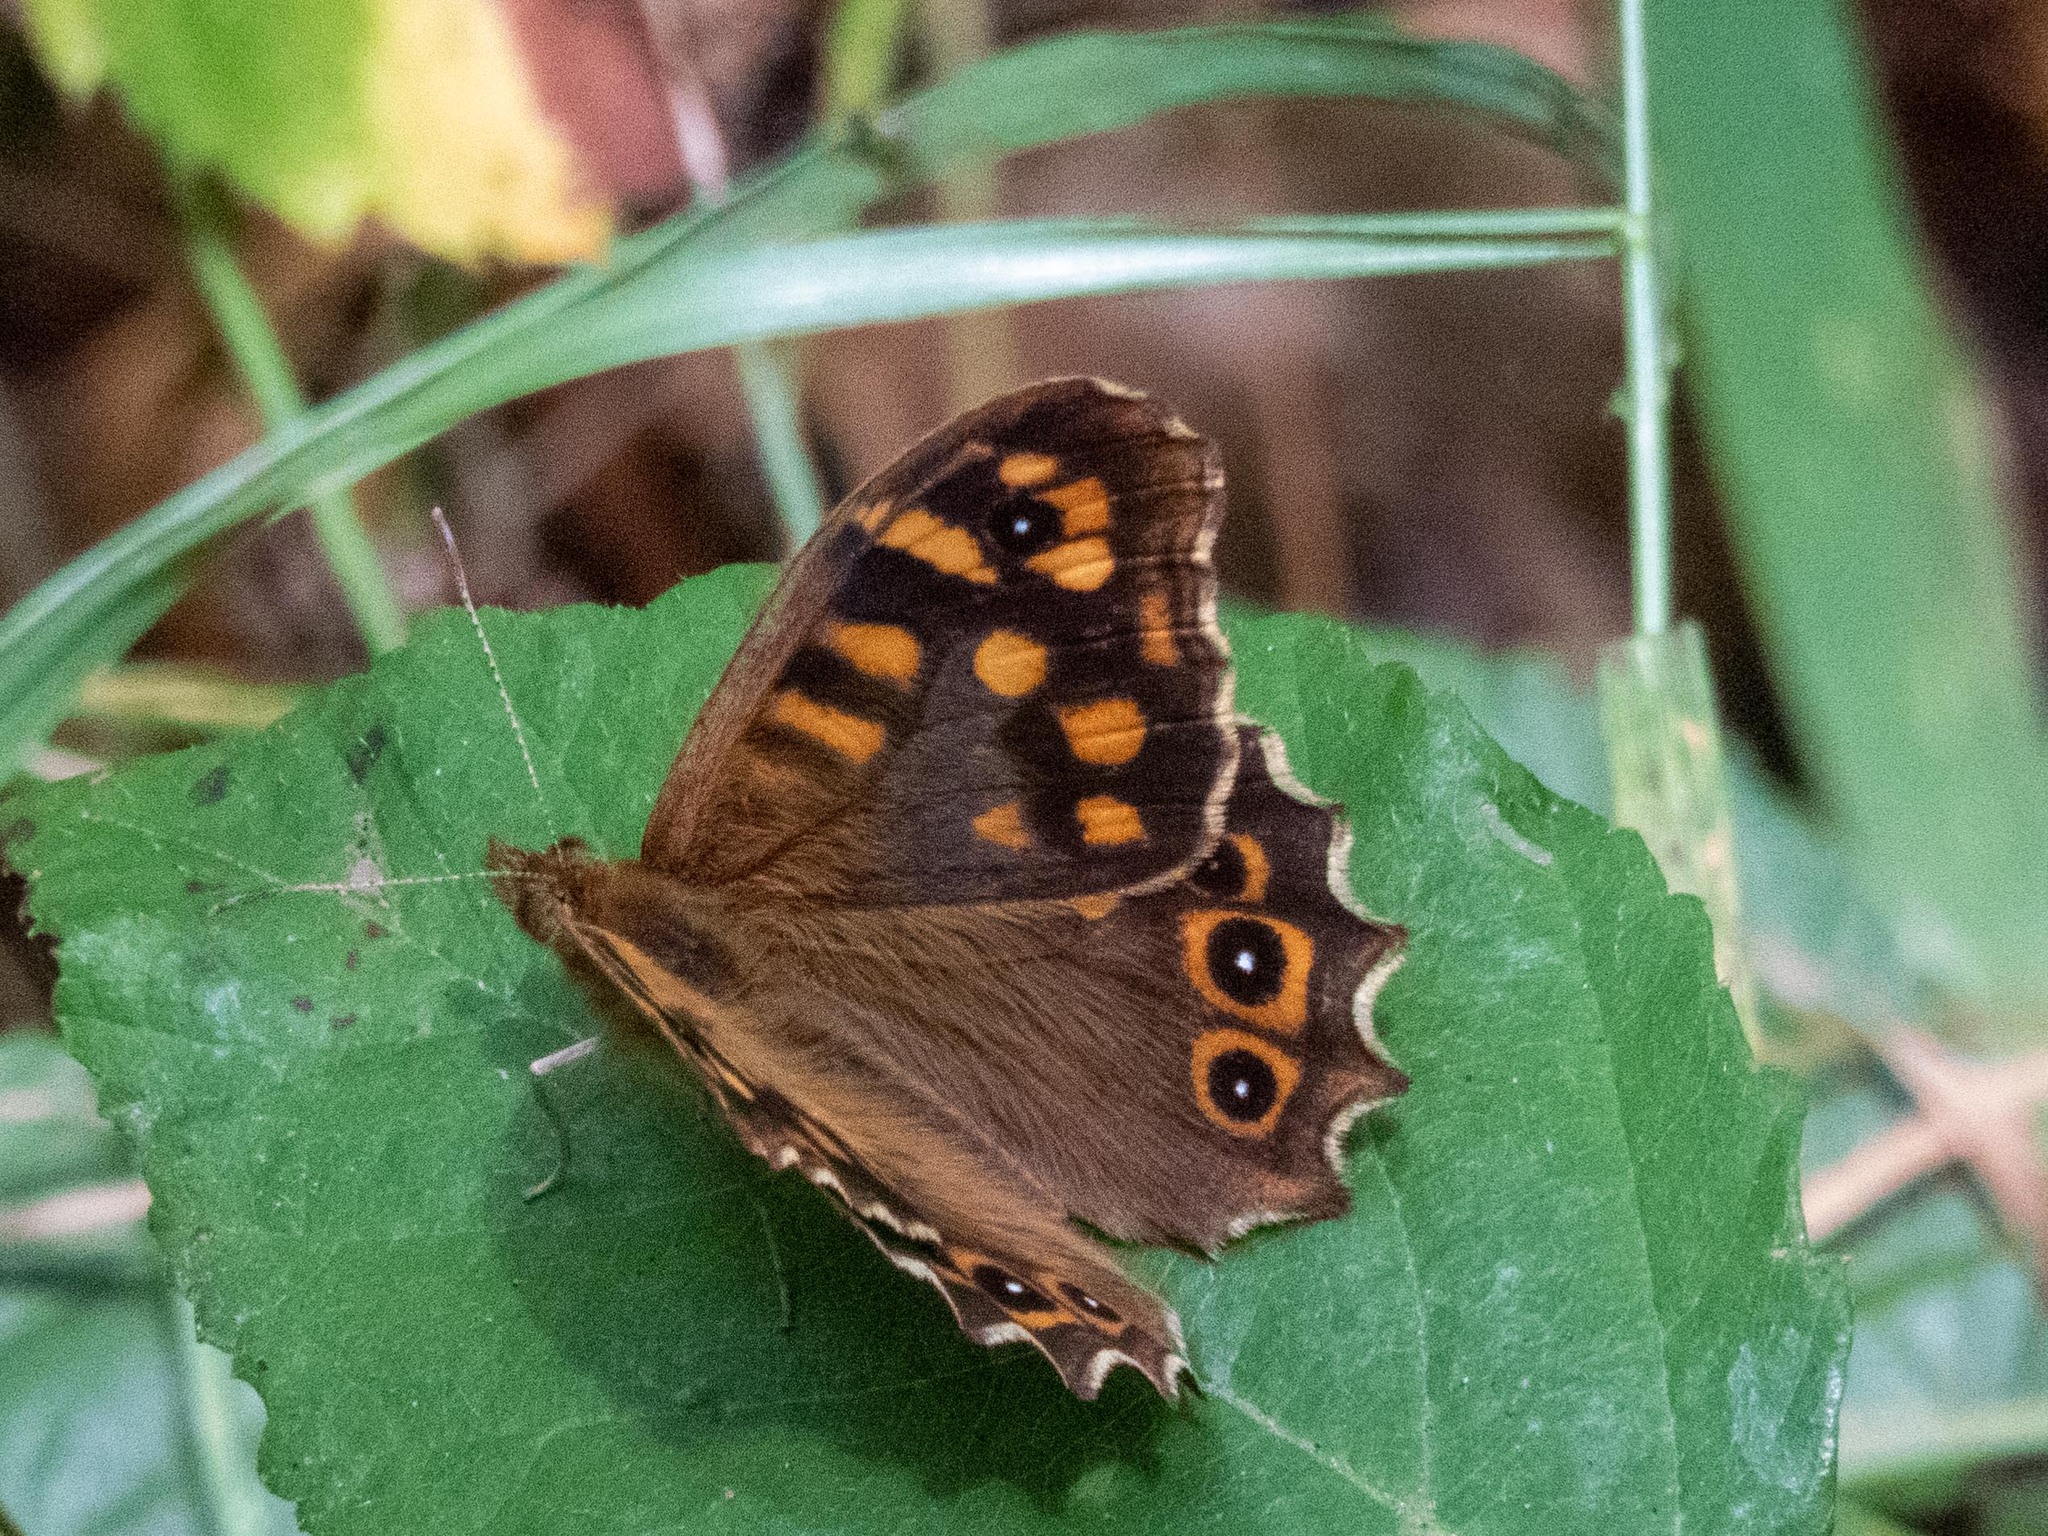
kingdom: Animalia
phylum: Arthropoda
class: Insecta
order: Lepidoptera
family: Nymphalidae
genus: Pararge
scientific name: Pararge aegeria
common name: Speckled wood
